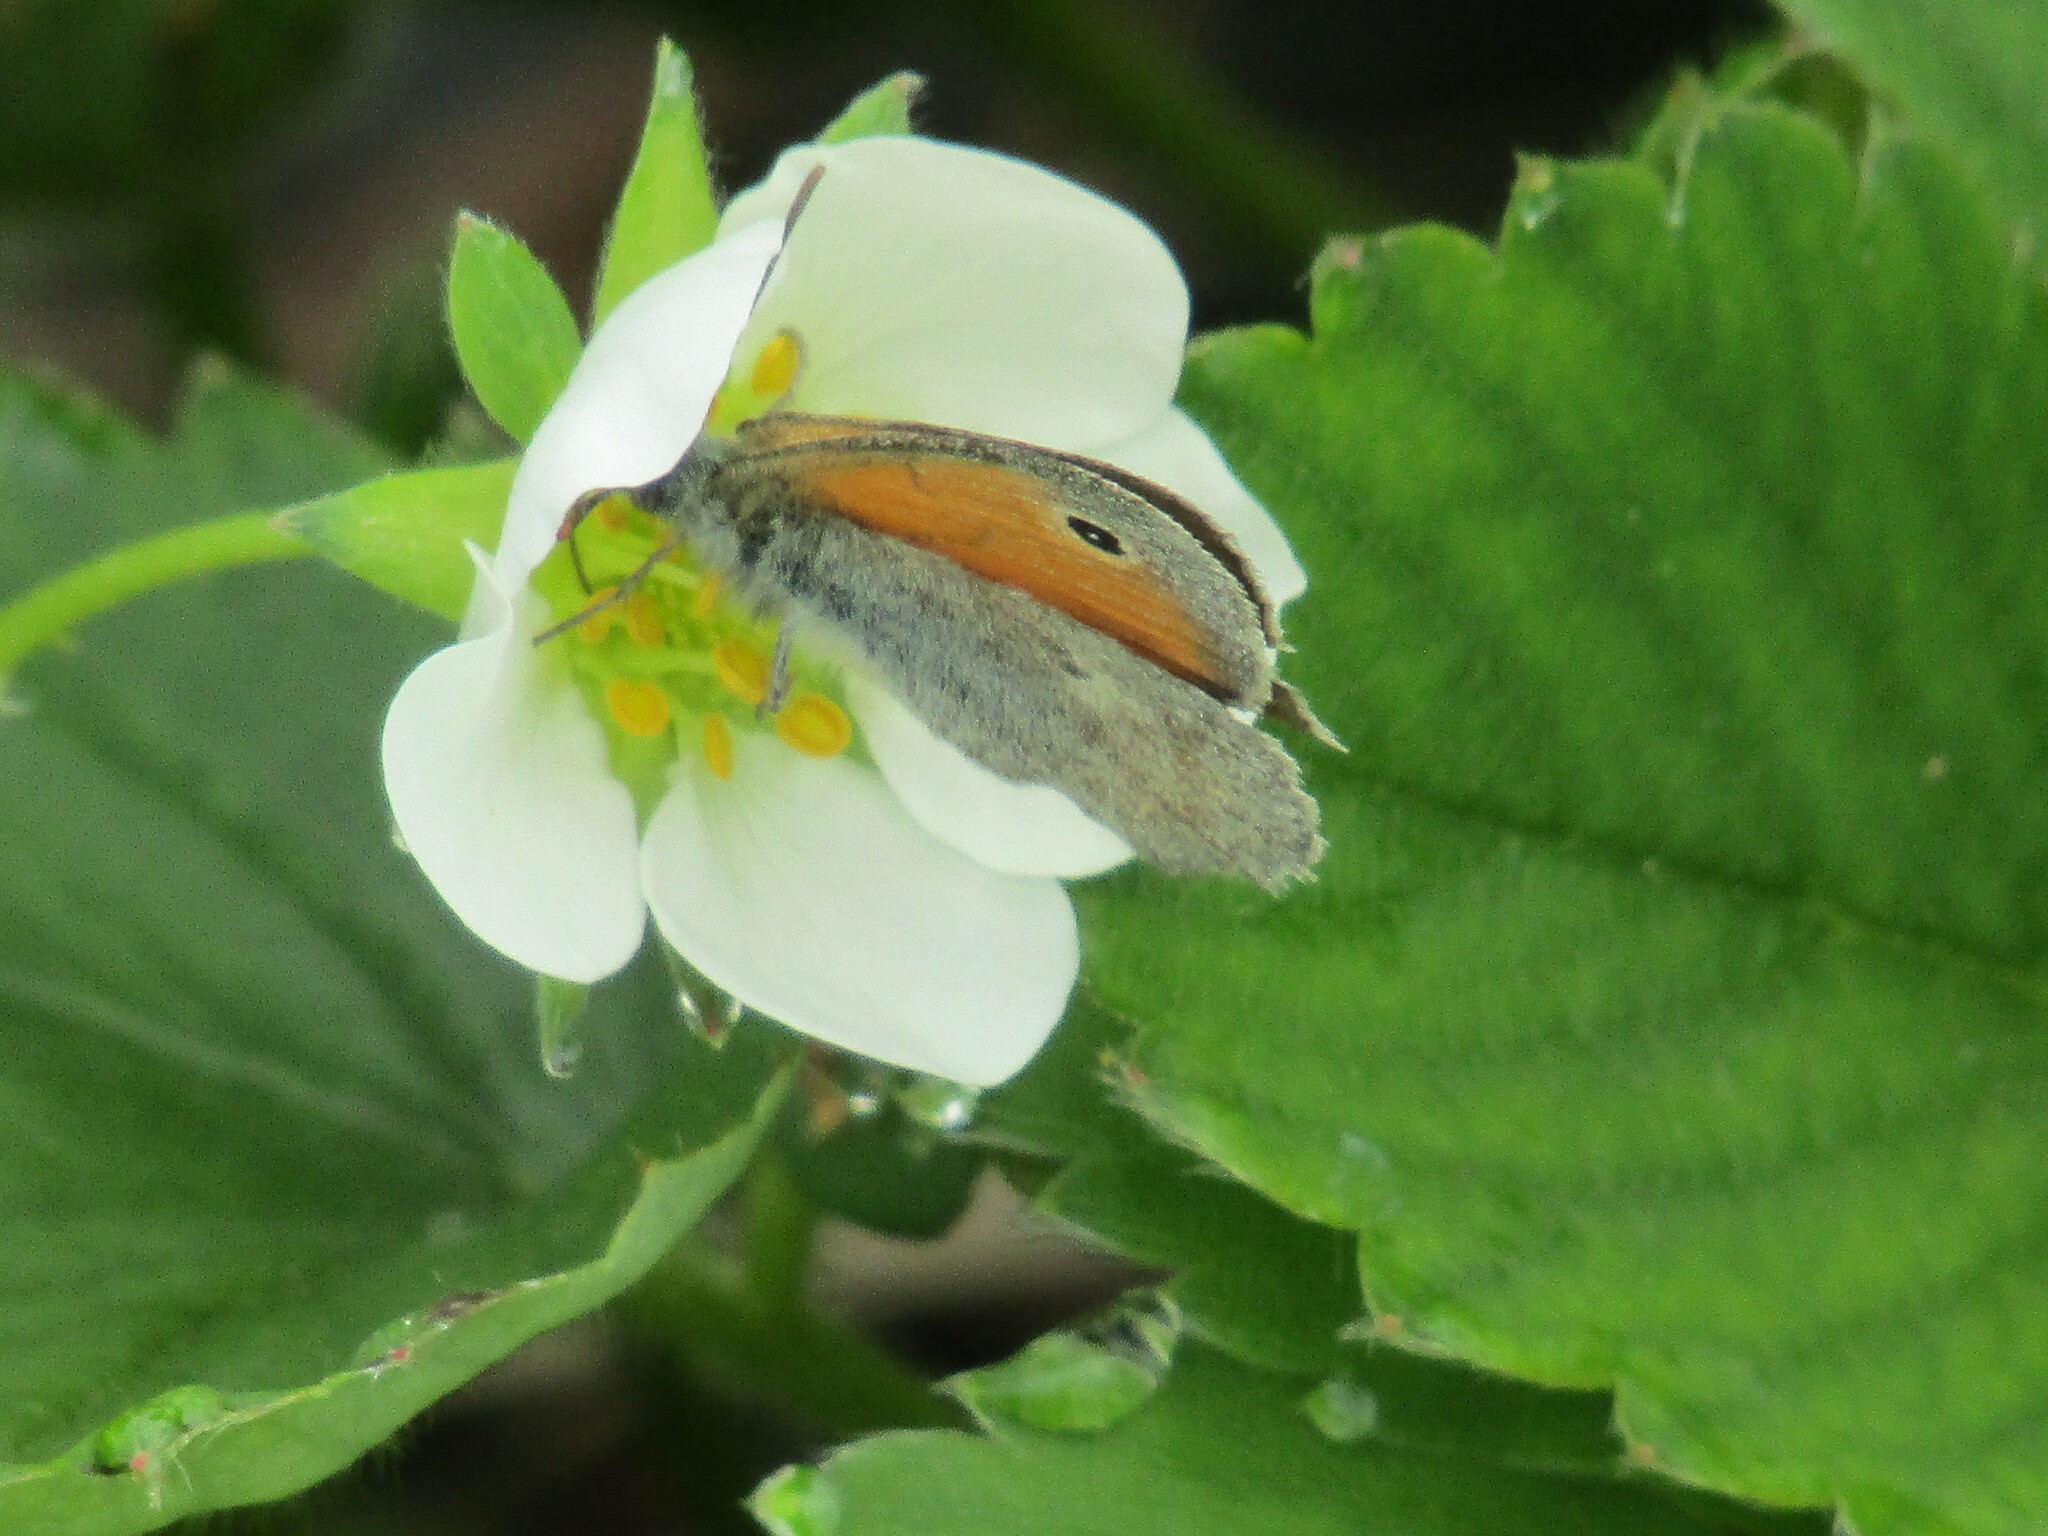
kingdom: Animalia
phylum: Arthropoda
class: Insecta
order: Lepidoptera
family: Nymphalidae
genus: Coenonympha
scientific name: Coenonympha pamphilus
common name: Small heath
